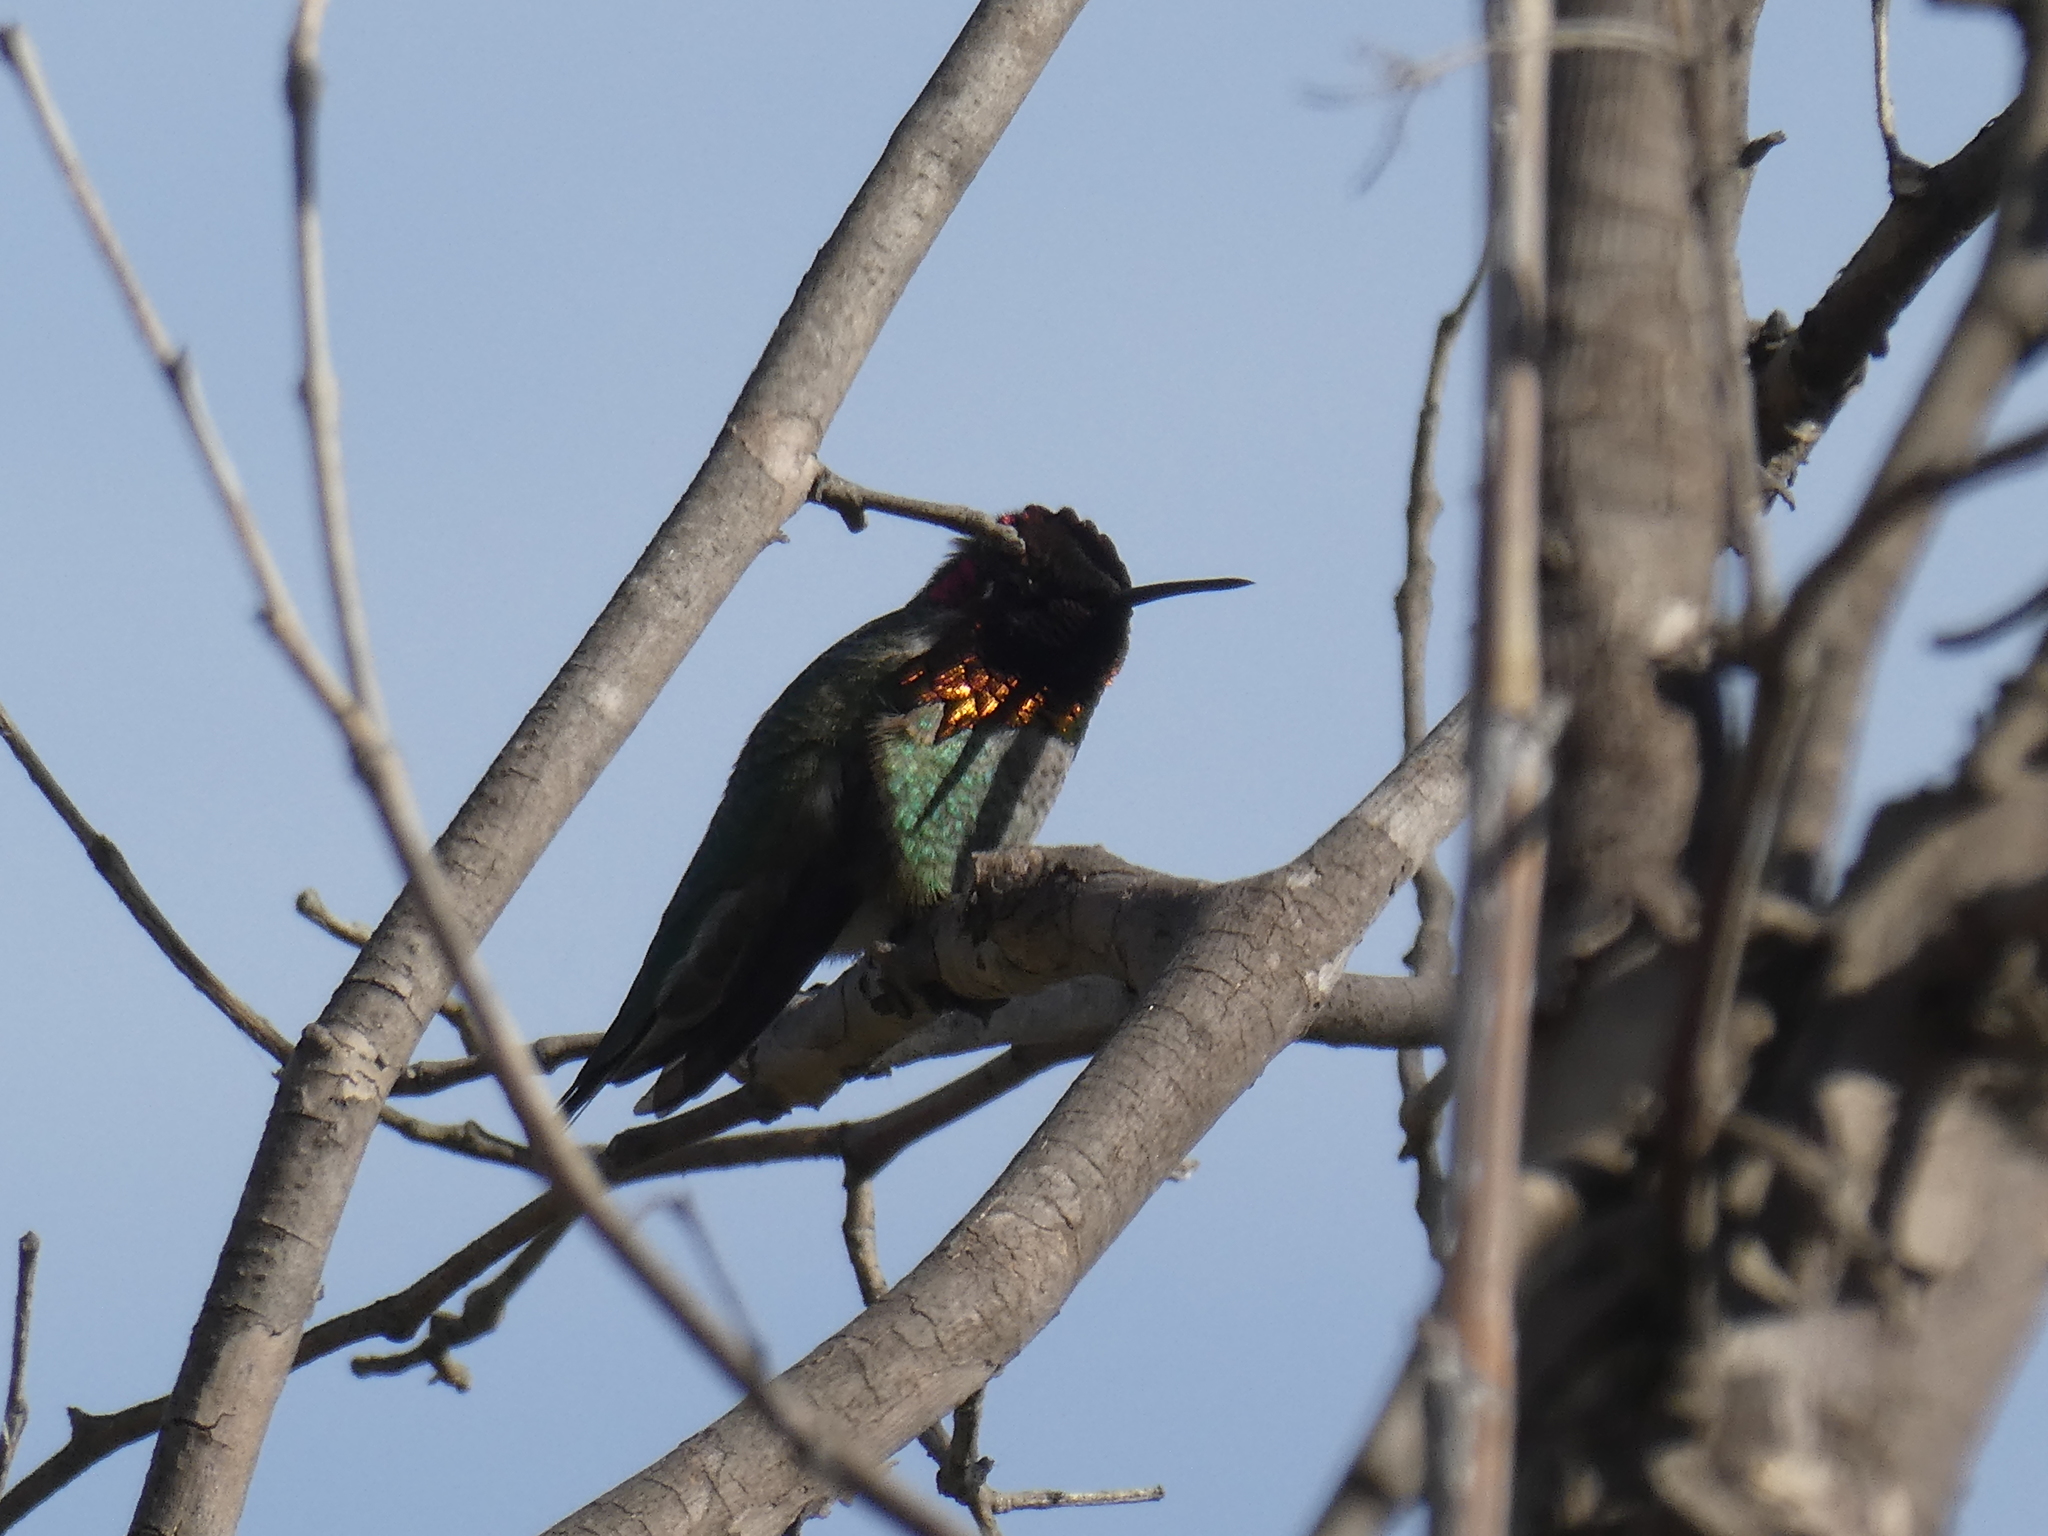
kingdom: Animalia
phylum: Chordata
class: Aves
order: Apodiformes
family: Trochilidae
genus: Calypte
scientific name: Calypte anna
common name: Anna's hummingbird
